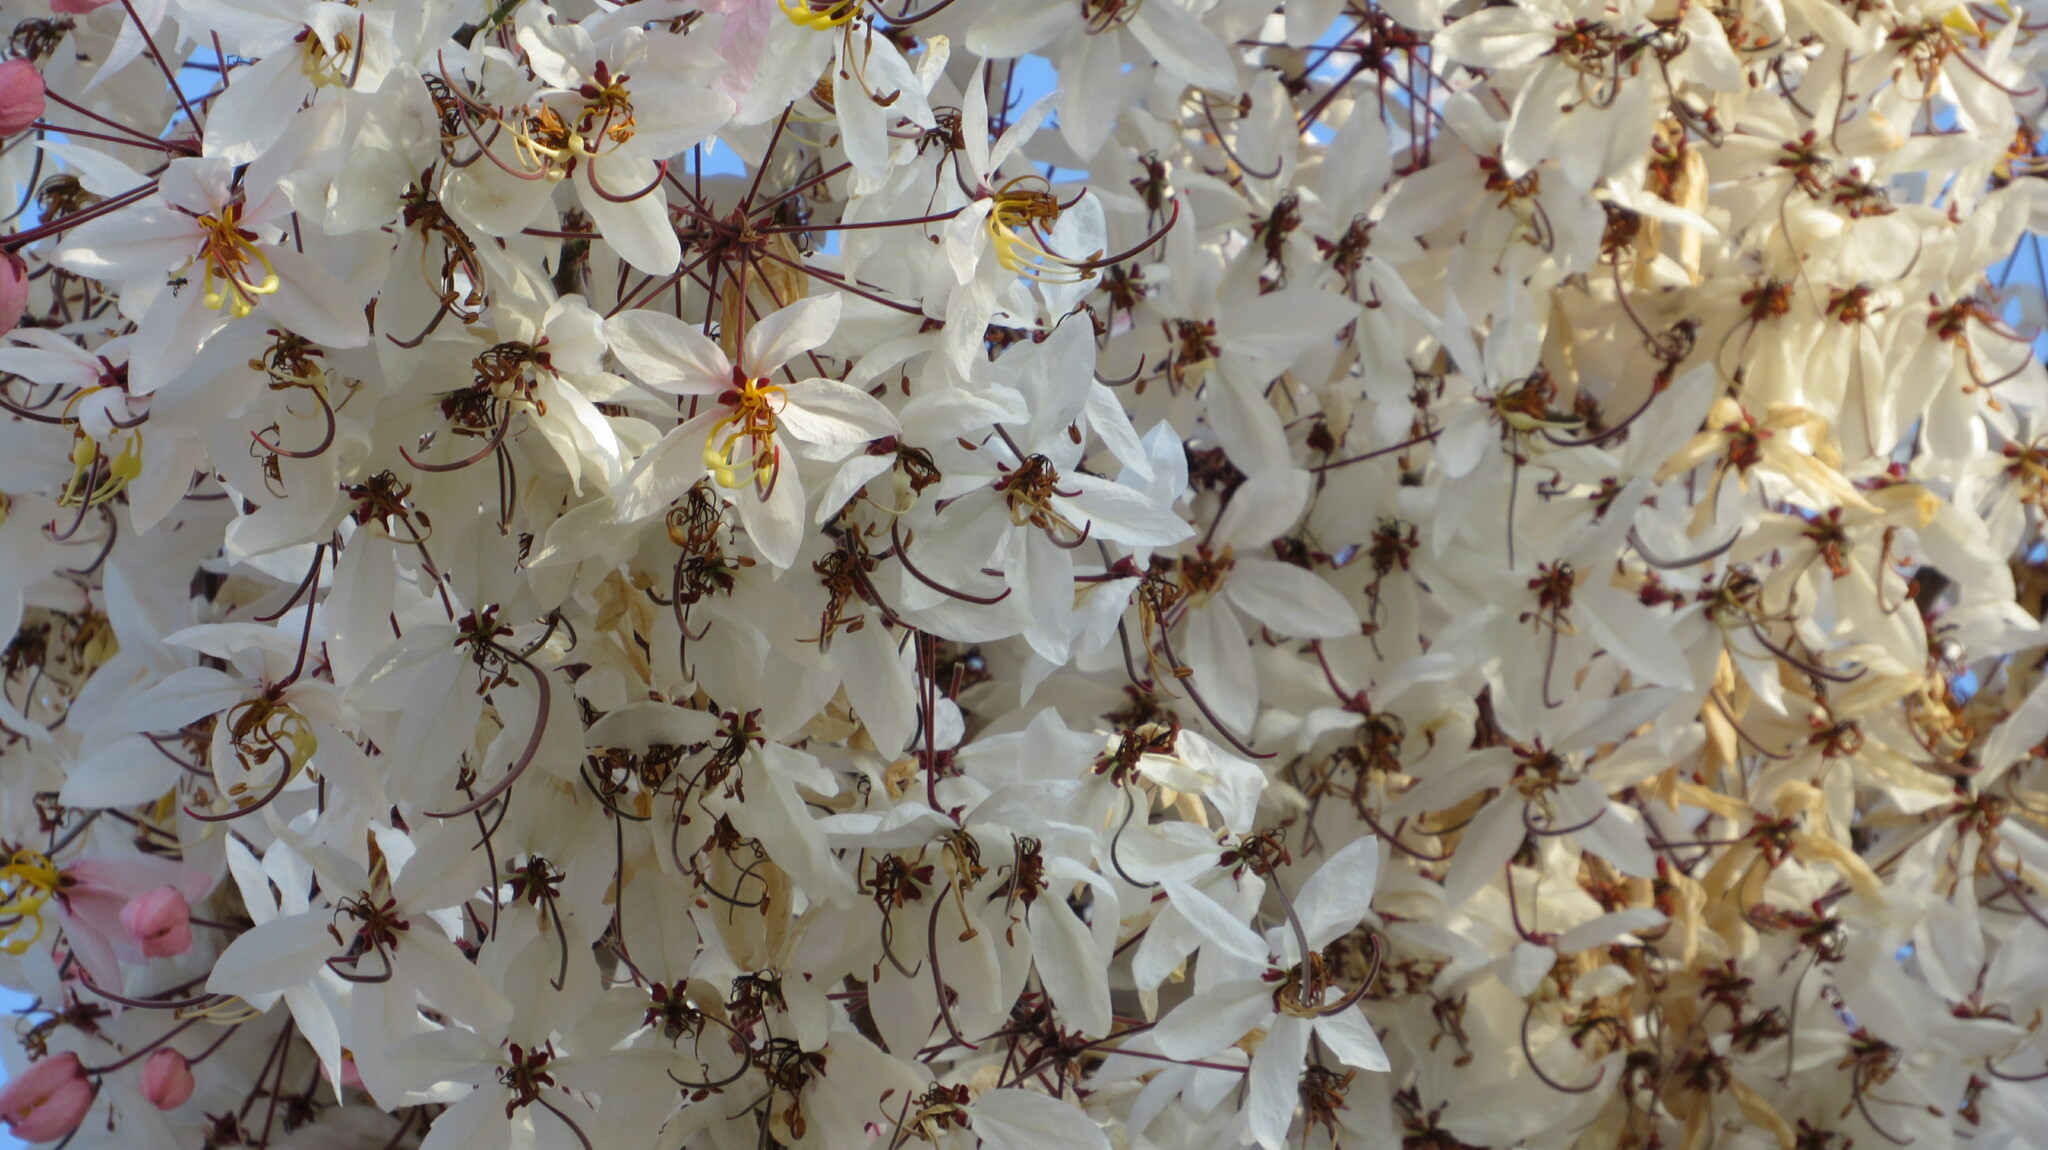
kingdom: Plantae
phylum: Tracheophyta
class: Magnoliopsida
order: Fabales
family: Fabaceae
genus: Cassia
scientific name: Cassia bakeriana
